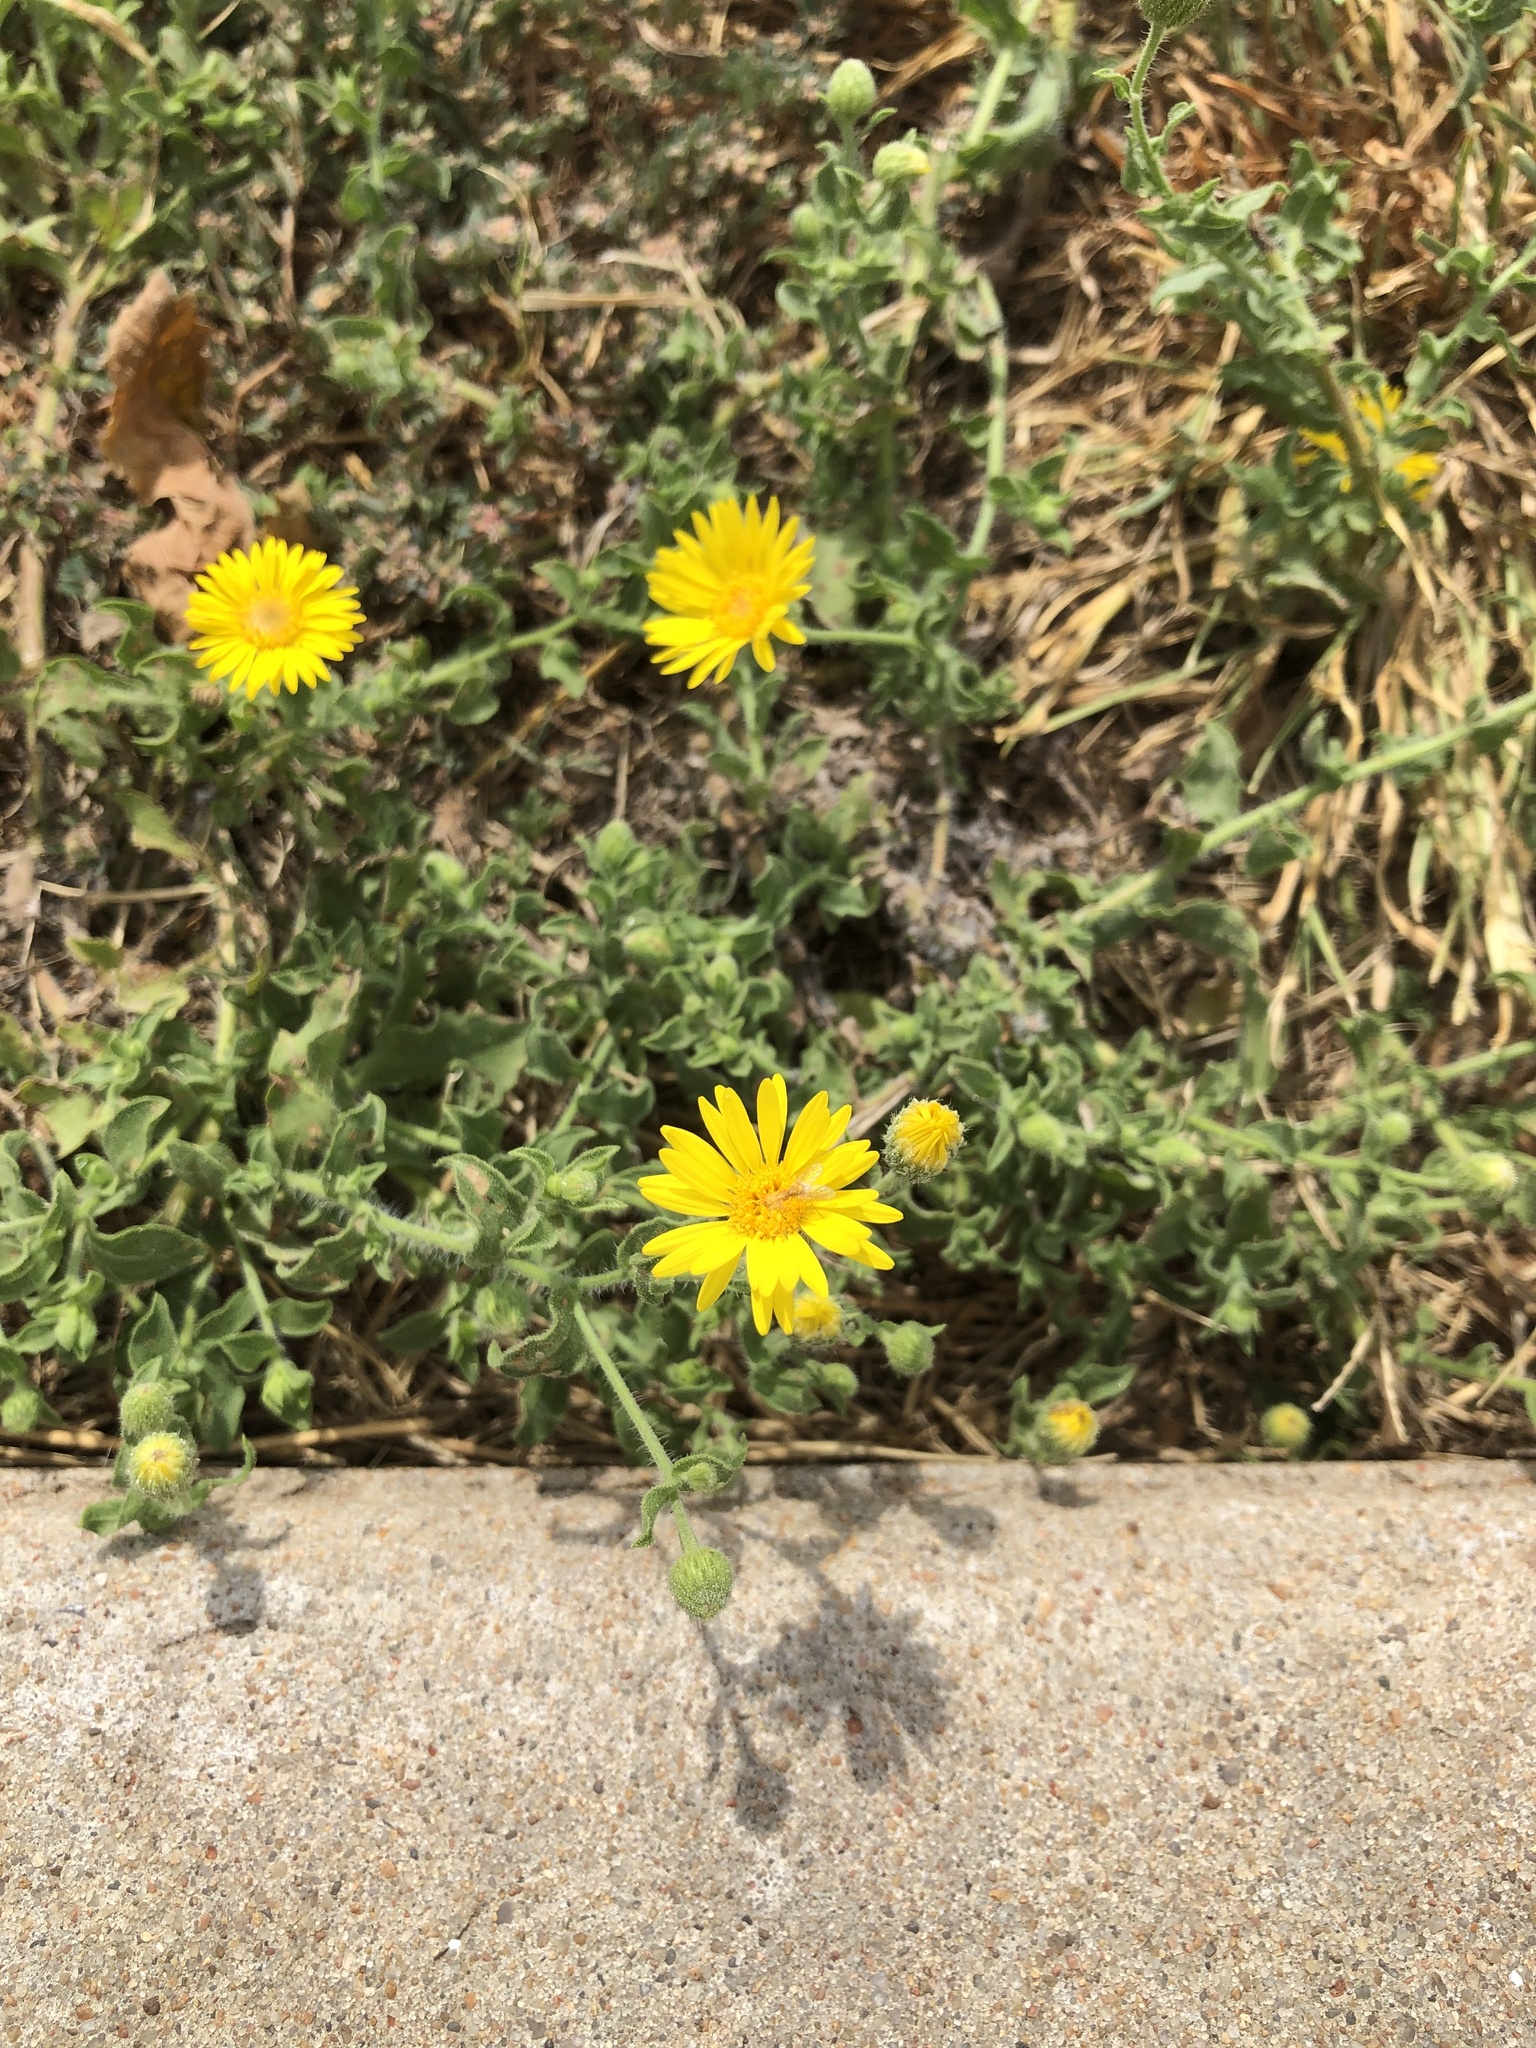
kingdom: Plantae
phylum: Tracheophyta
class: Magnoliopsida
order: Asterales
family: Asteraceae
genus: Heterotheca
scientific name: Heterotheca subaxillaris
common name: Camphorweed
